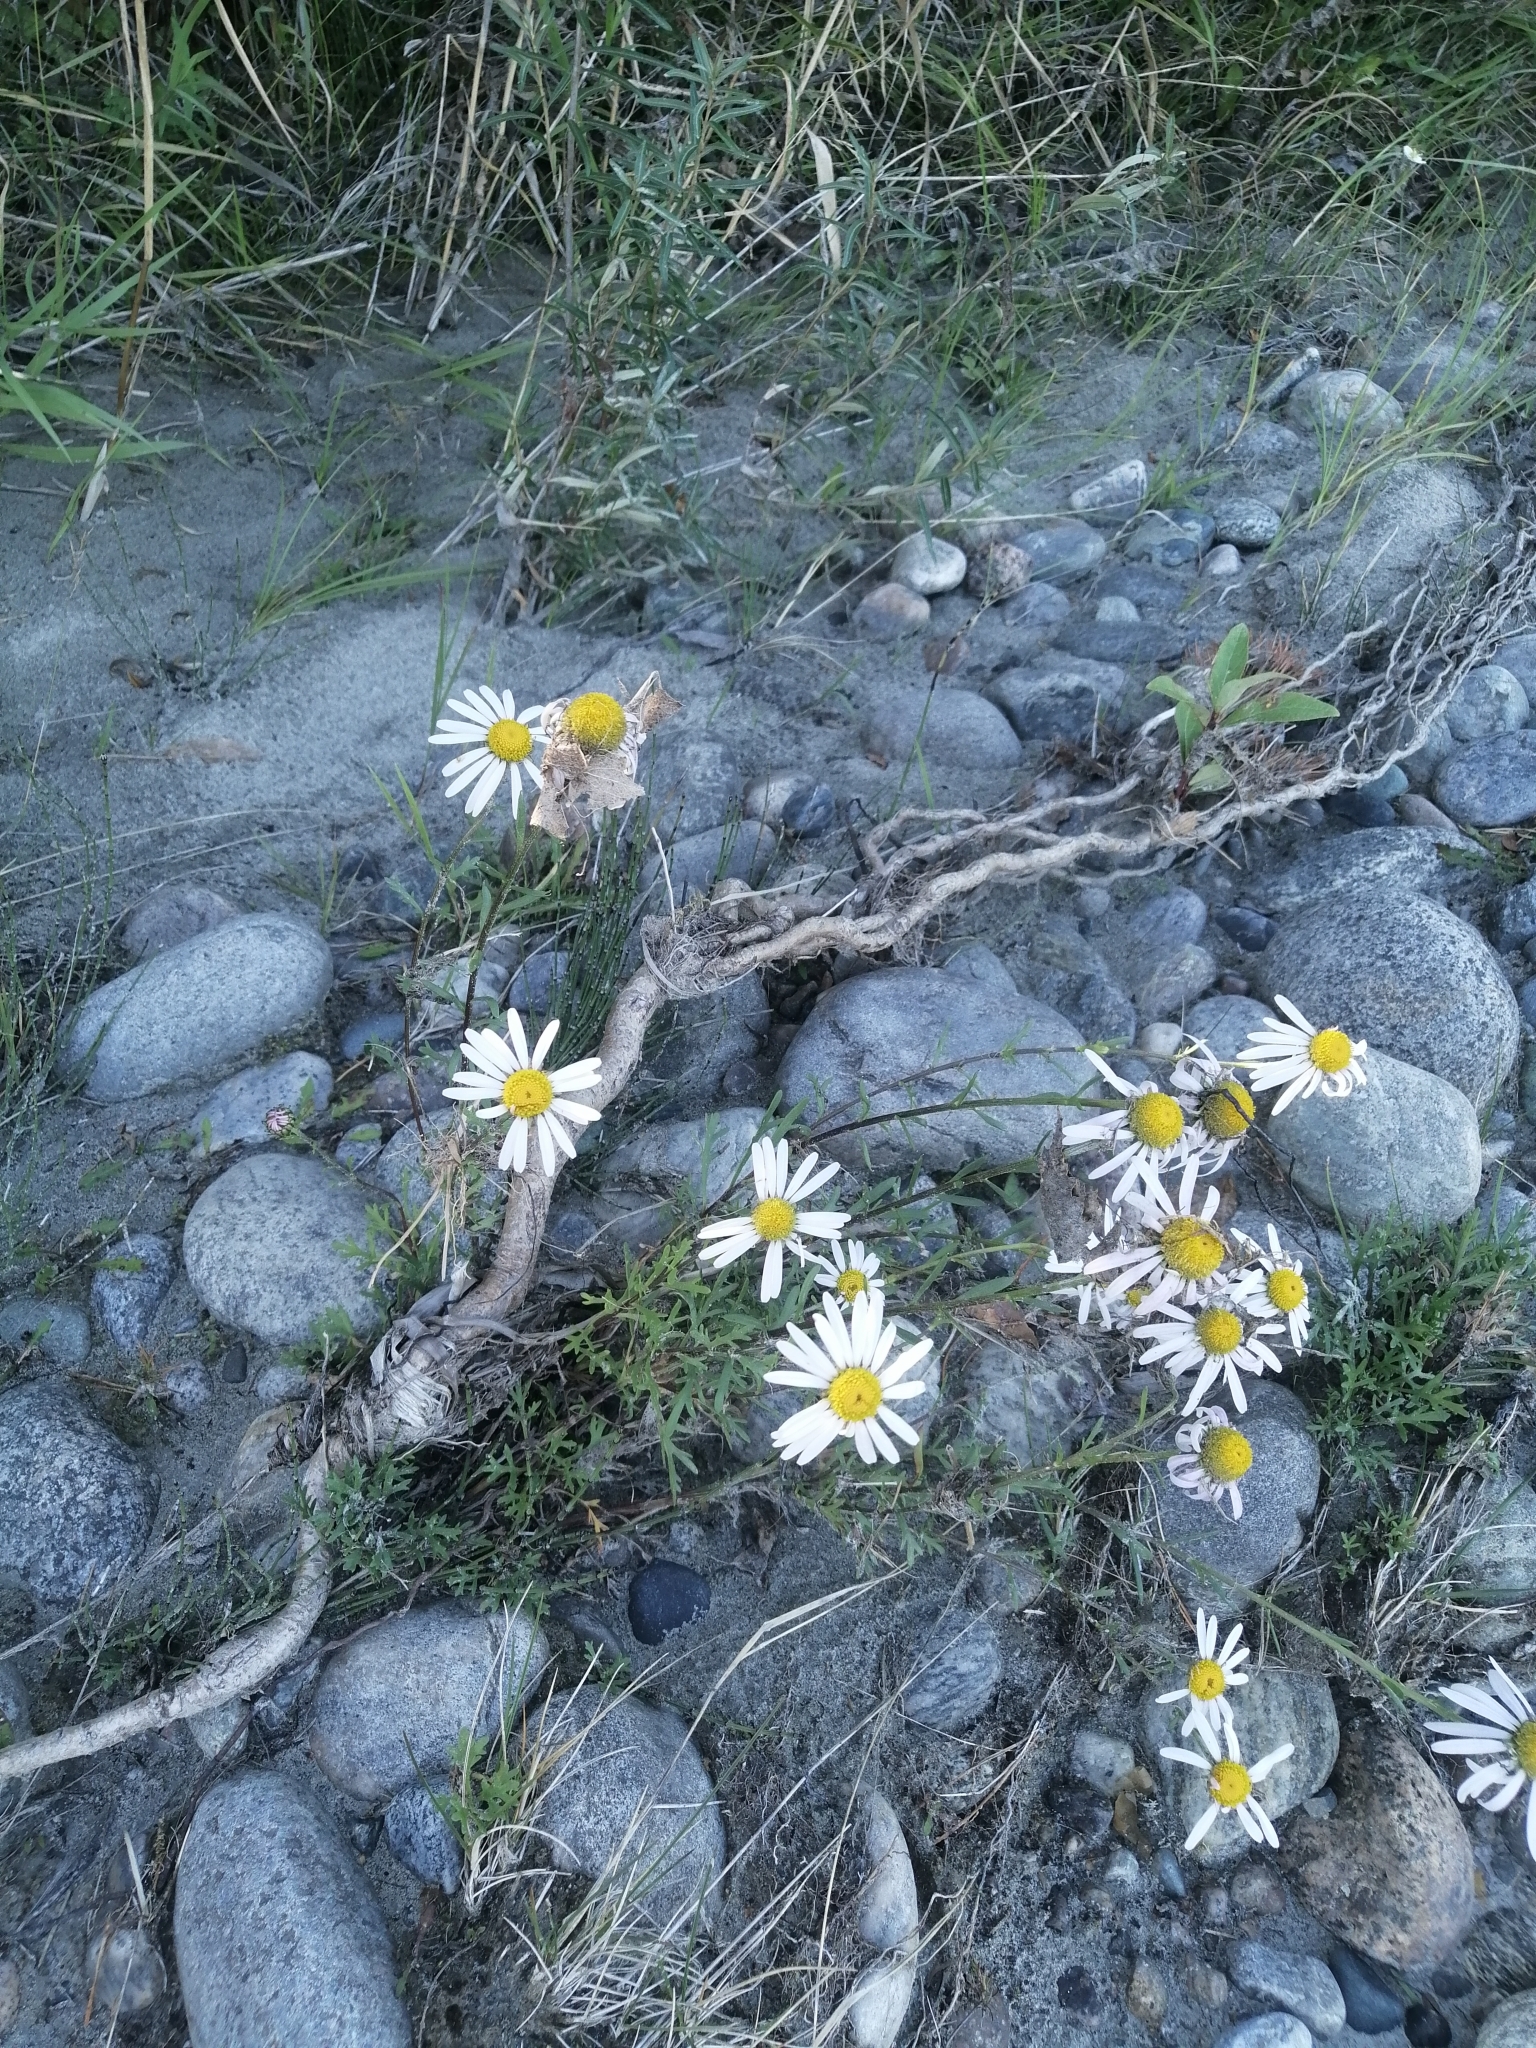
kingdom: Plantae
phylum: Tracheophyta
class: Magnoliopsida
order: Asterales
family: Asteraceae
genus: Chrysanthemum
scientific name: Chrysanthemum zawadzkii
